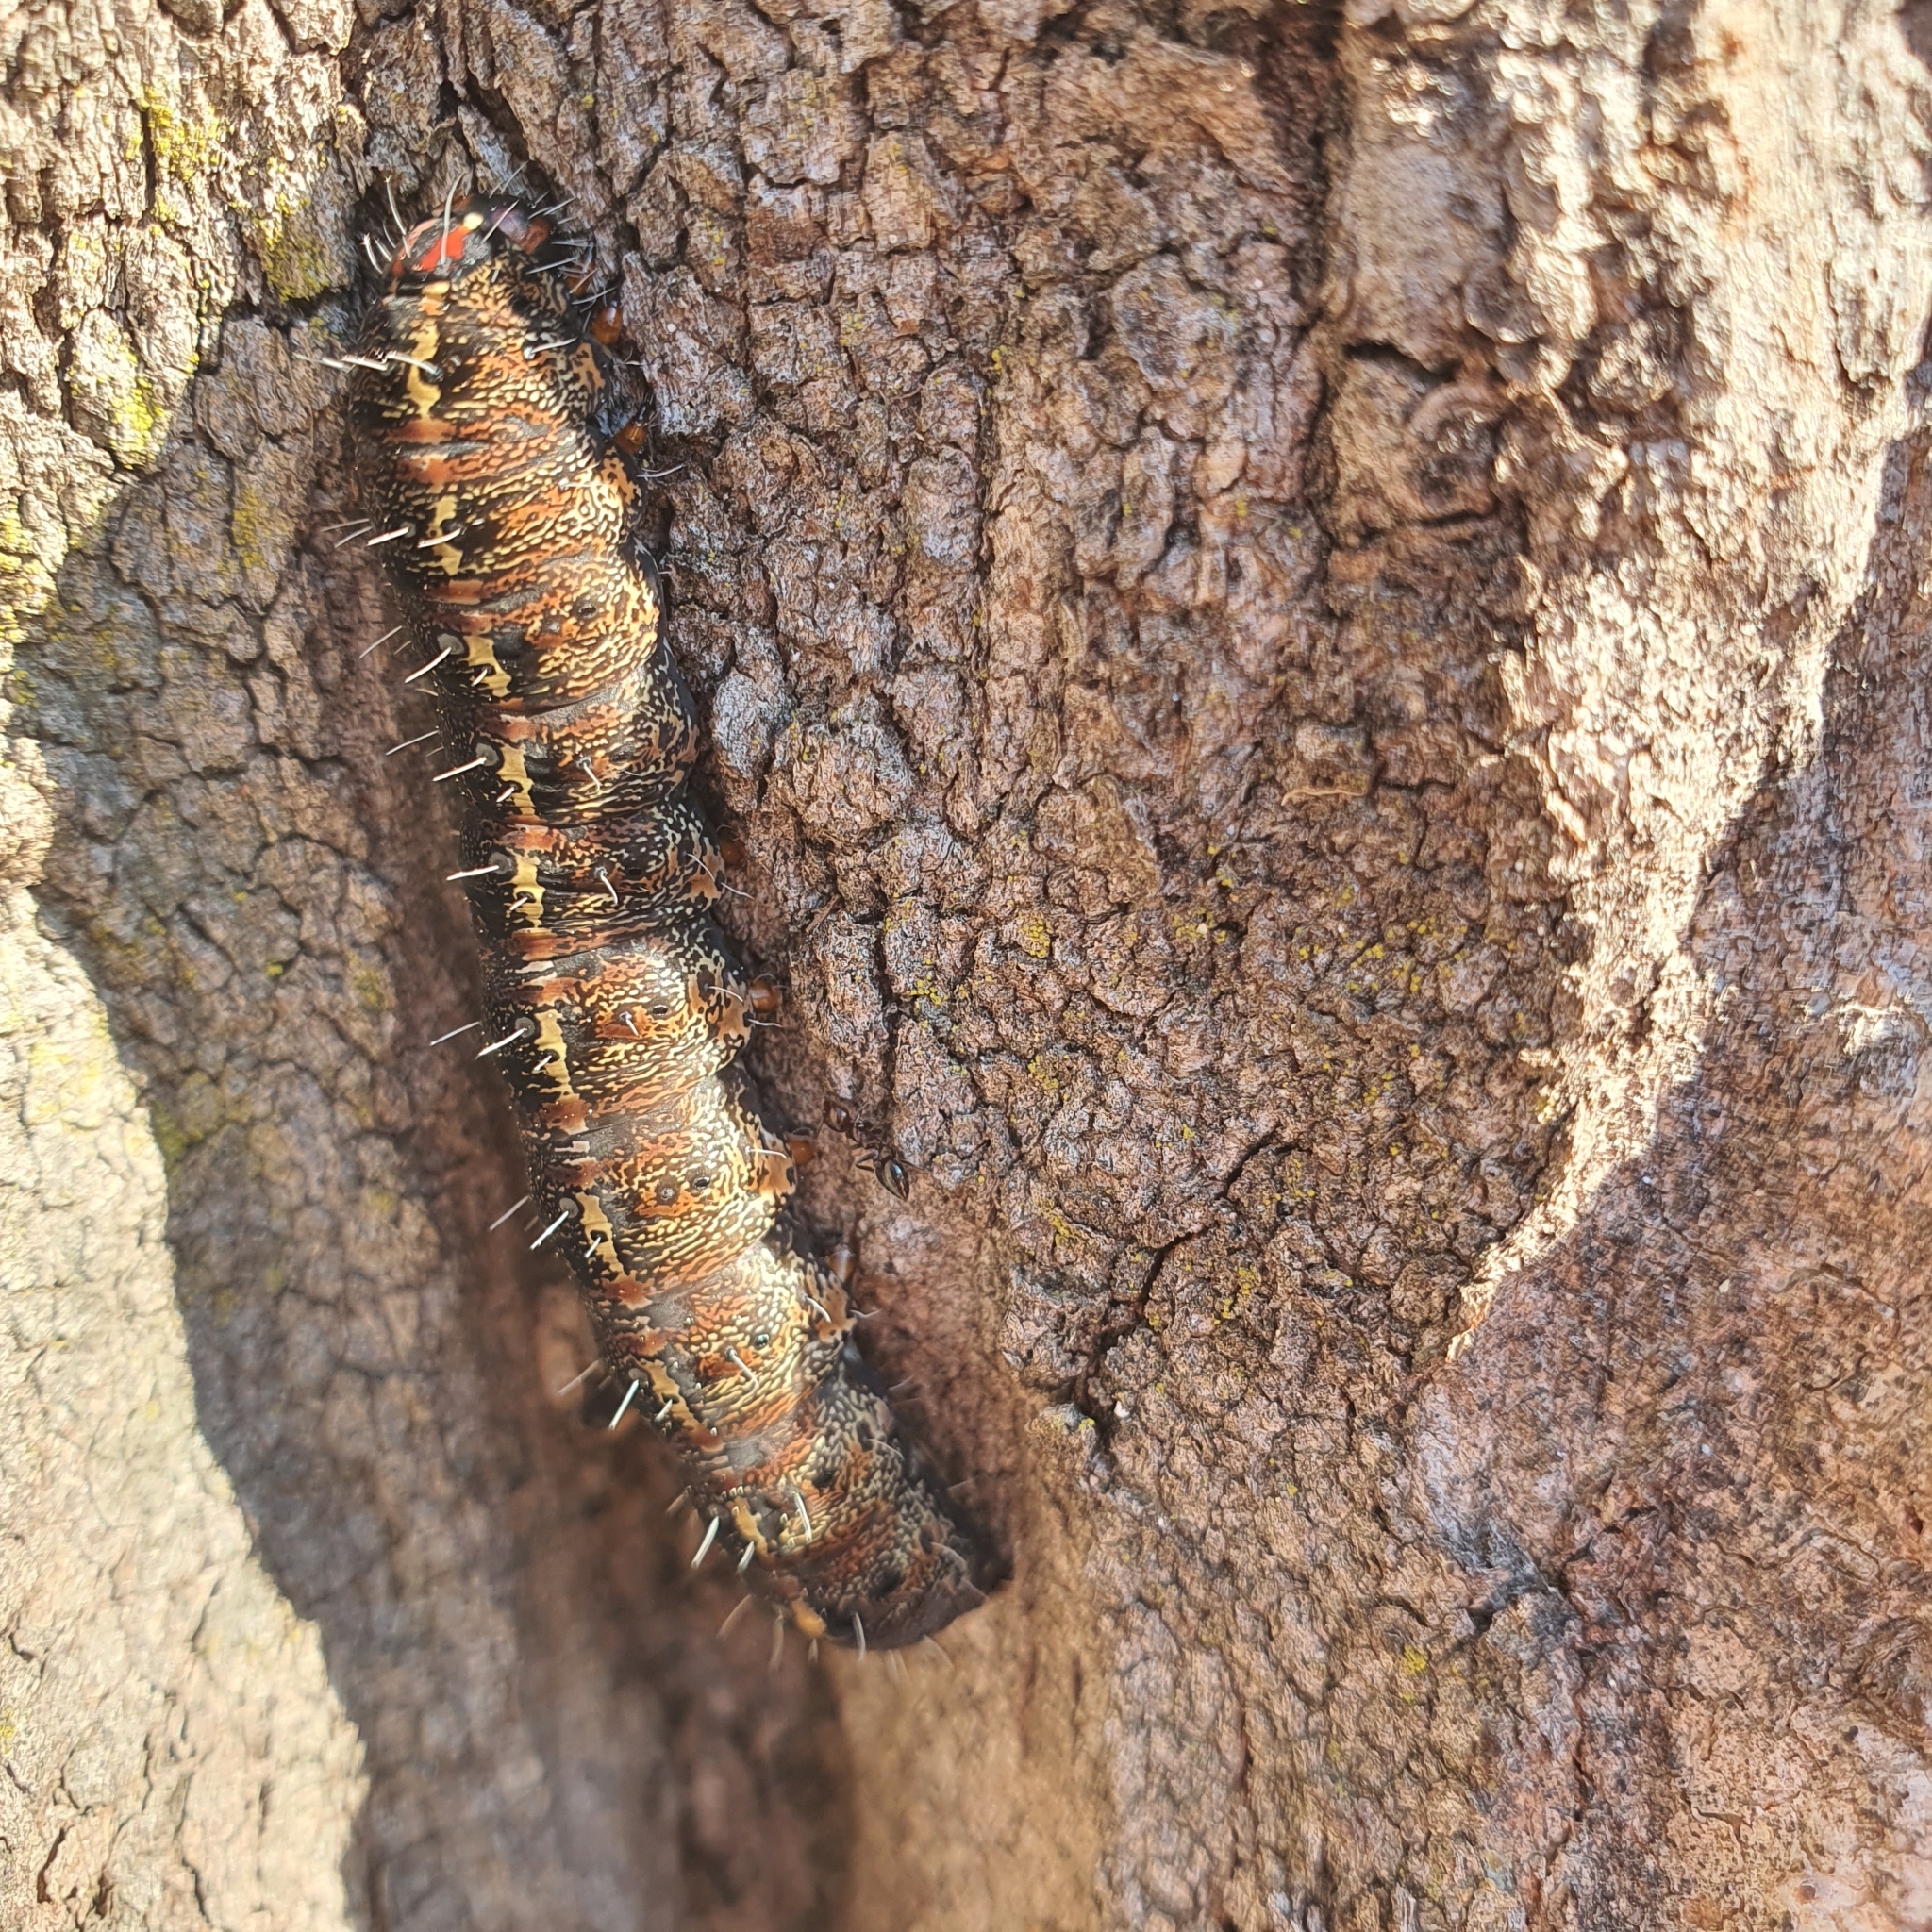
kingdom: Animalia
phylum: Arthropoda
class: Insecta
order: Lepidoptera
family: Noctuidae
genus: Apina
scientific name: Apina callisto
